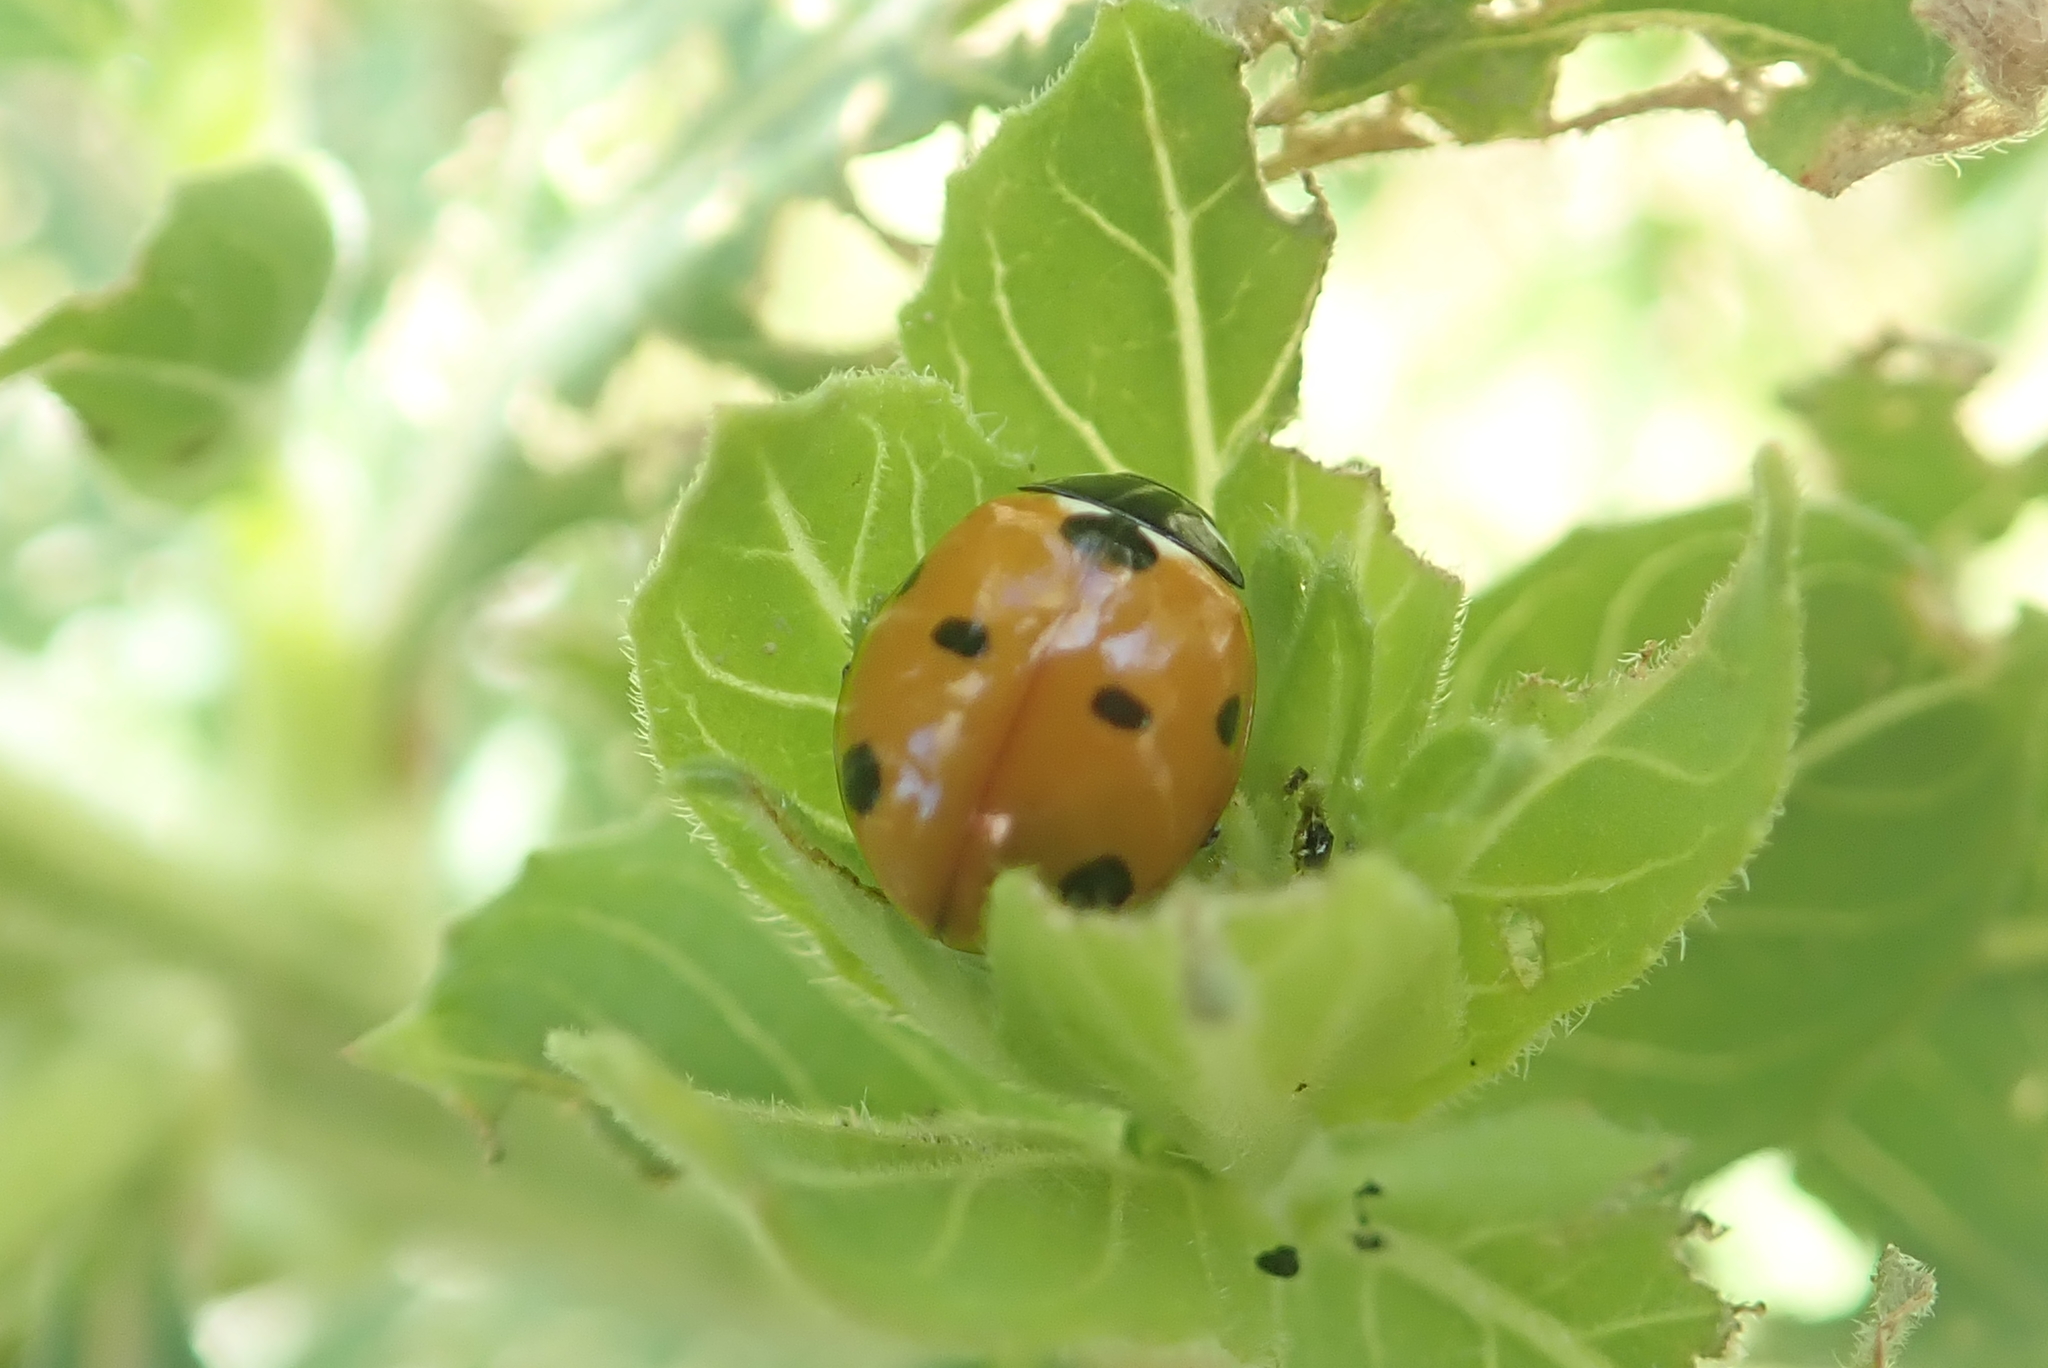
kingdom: Animalia
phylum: Arthropoda
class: Insecta
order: Coleoptera
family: Coccinellidae
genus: Coccinella
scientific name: Coccinella septempunctata
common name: Sevenspotted lady beetle
